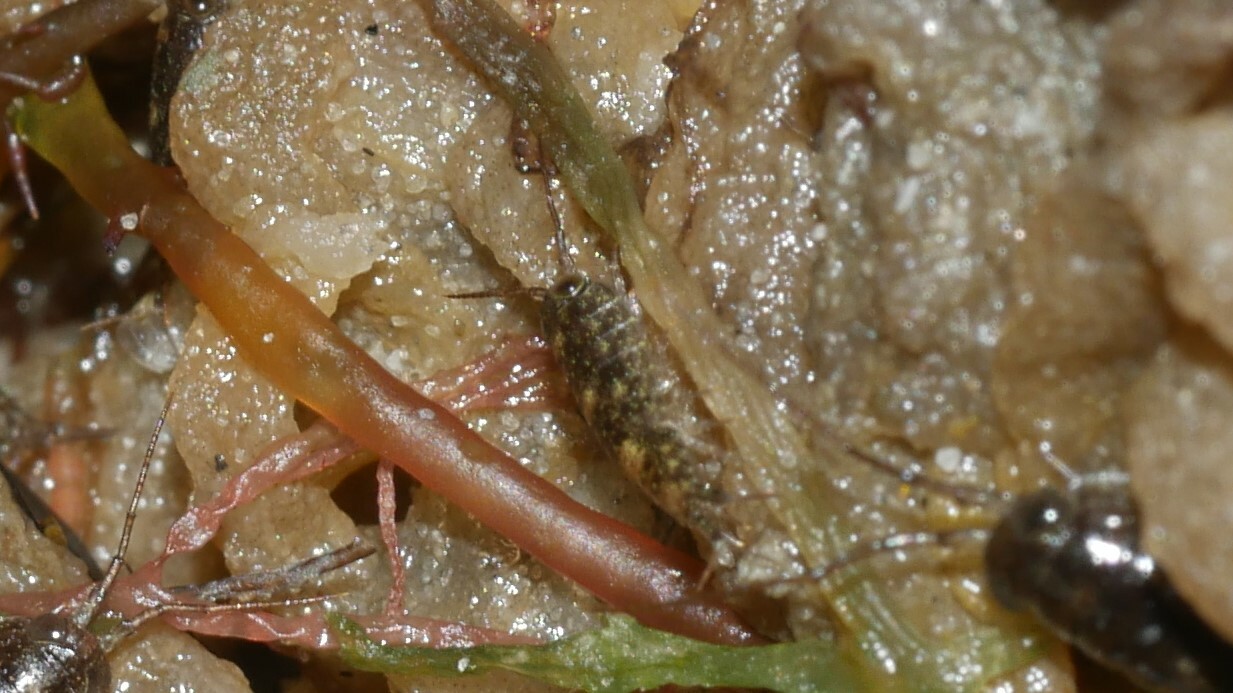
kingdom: Animalia
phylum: Arthropoda
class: Malacostraca
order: Isopoda
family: Ligiidae
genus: Ligia
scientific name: Ligia exotica
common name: Wharf roach
